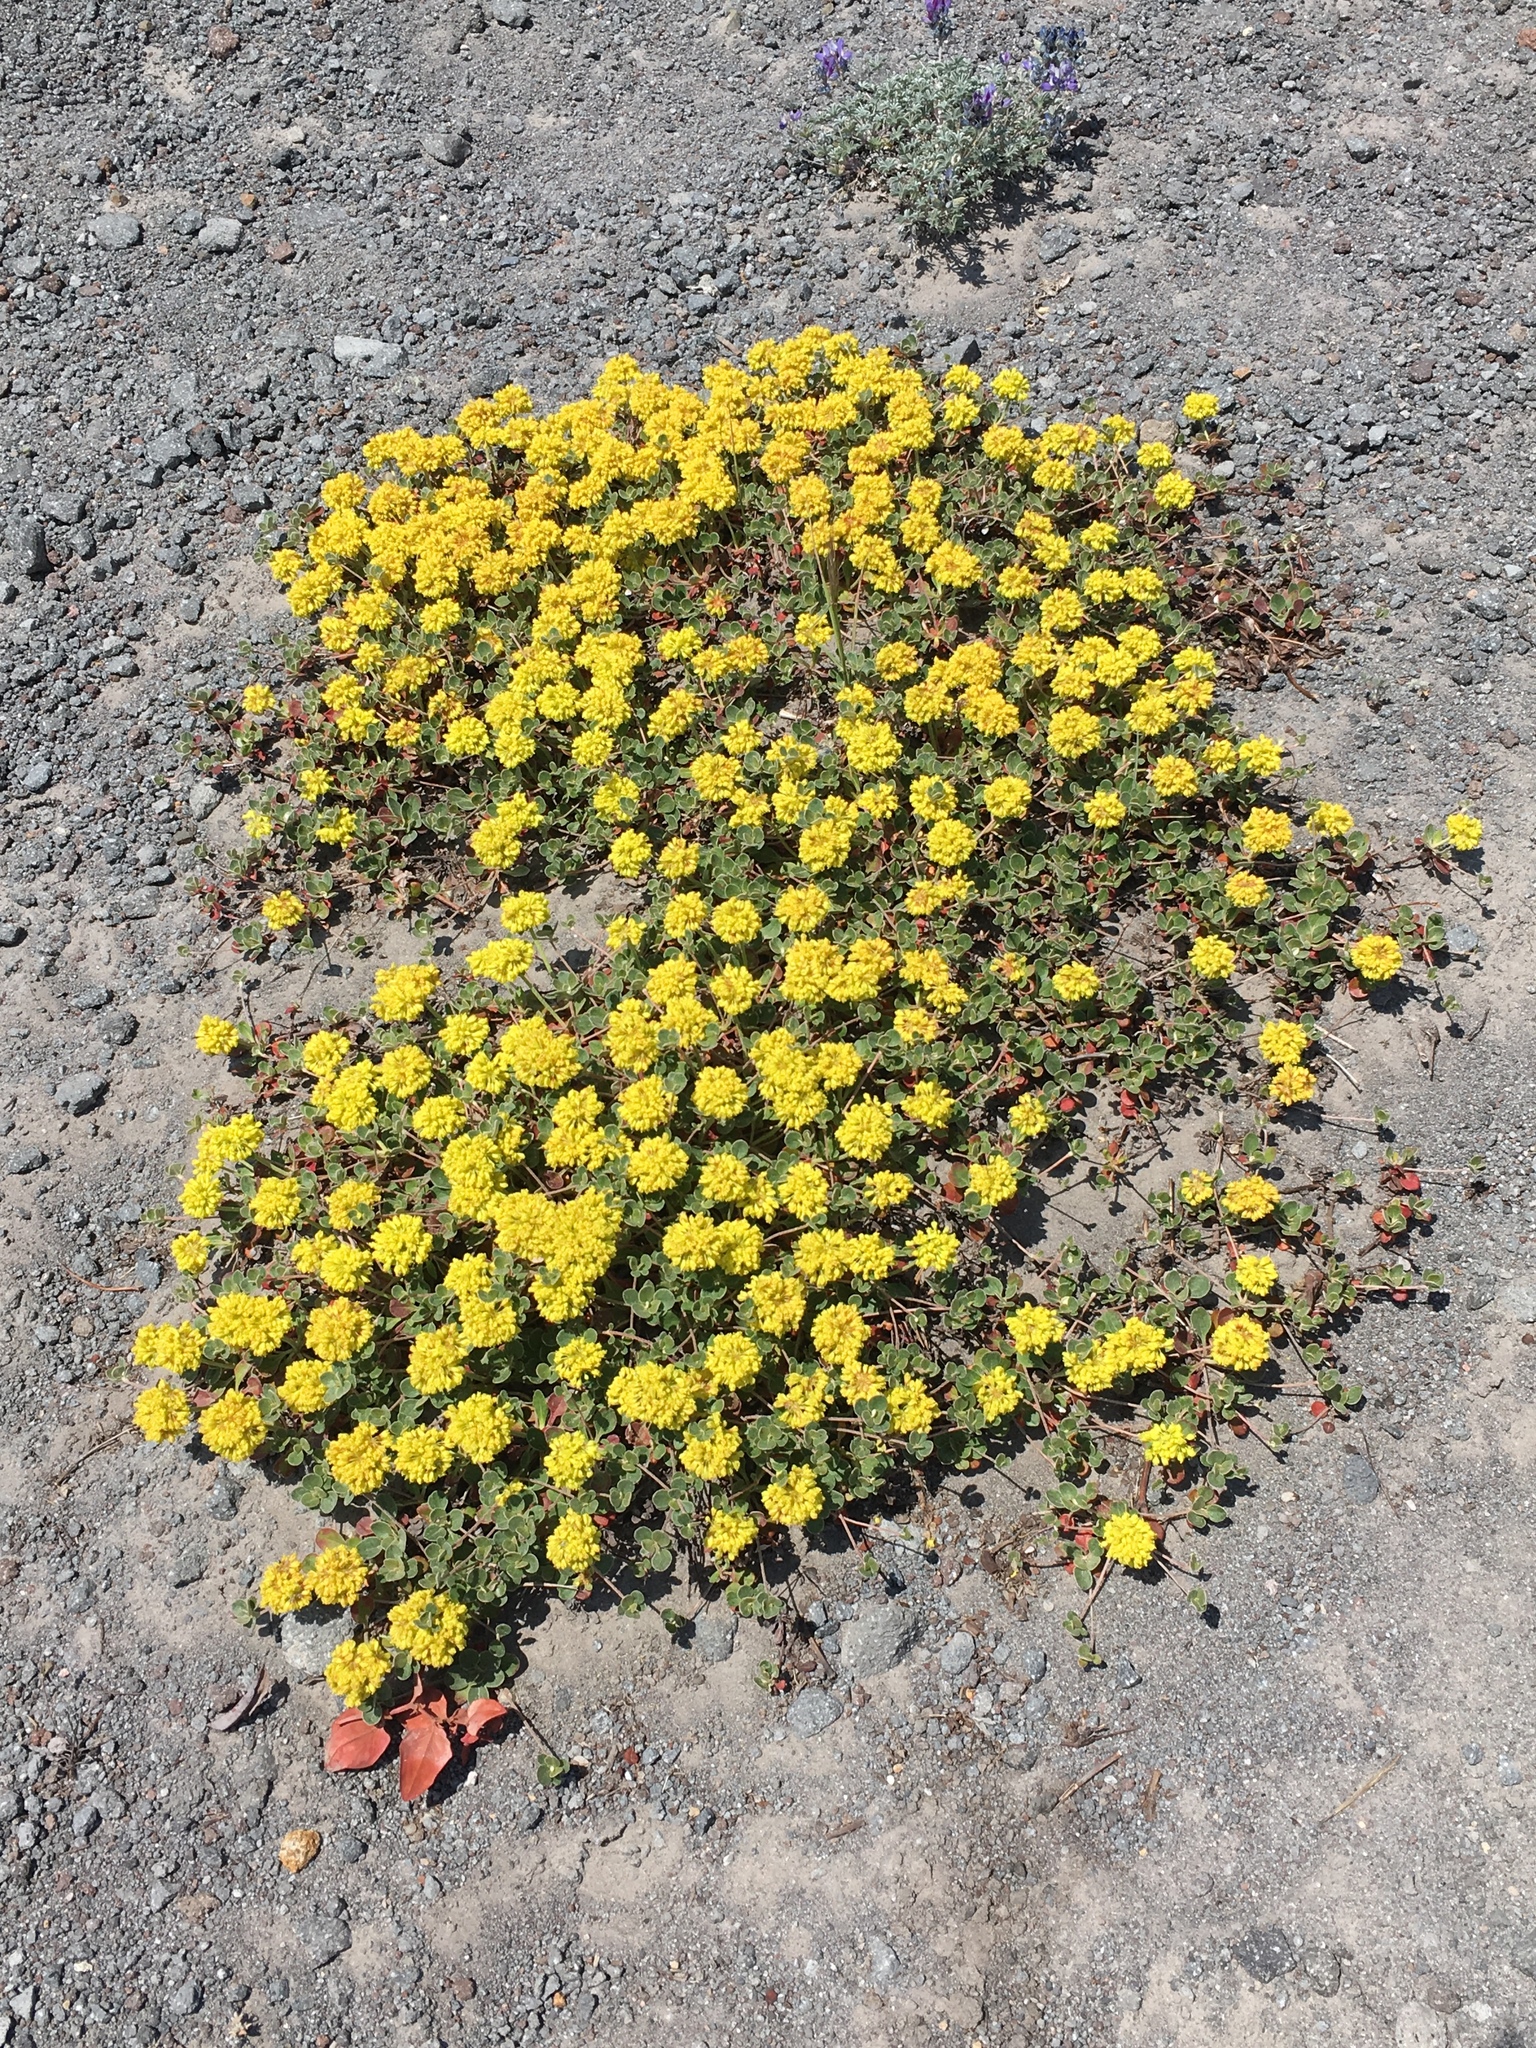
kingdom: Plantae
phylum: Tracheophyta
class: Magnoliopsida
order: Caryophyllales
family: Polygonaceae
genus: Eriogonum
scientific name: Eriogonum umbellatum
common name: Sulfur-buckwheat
